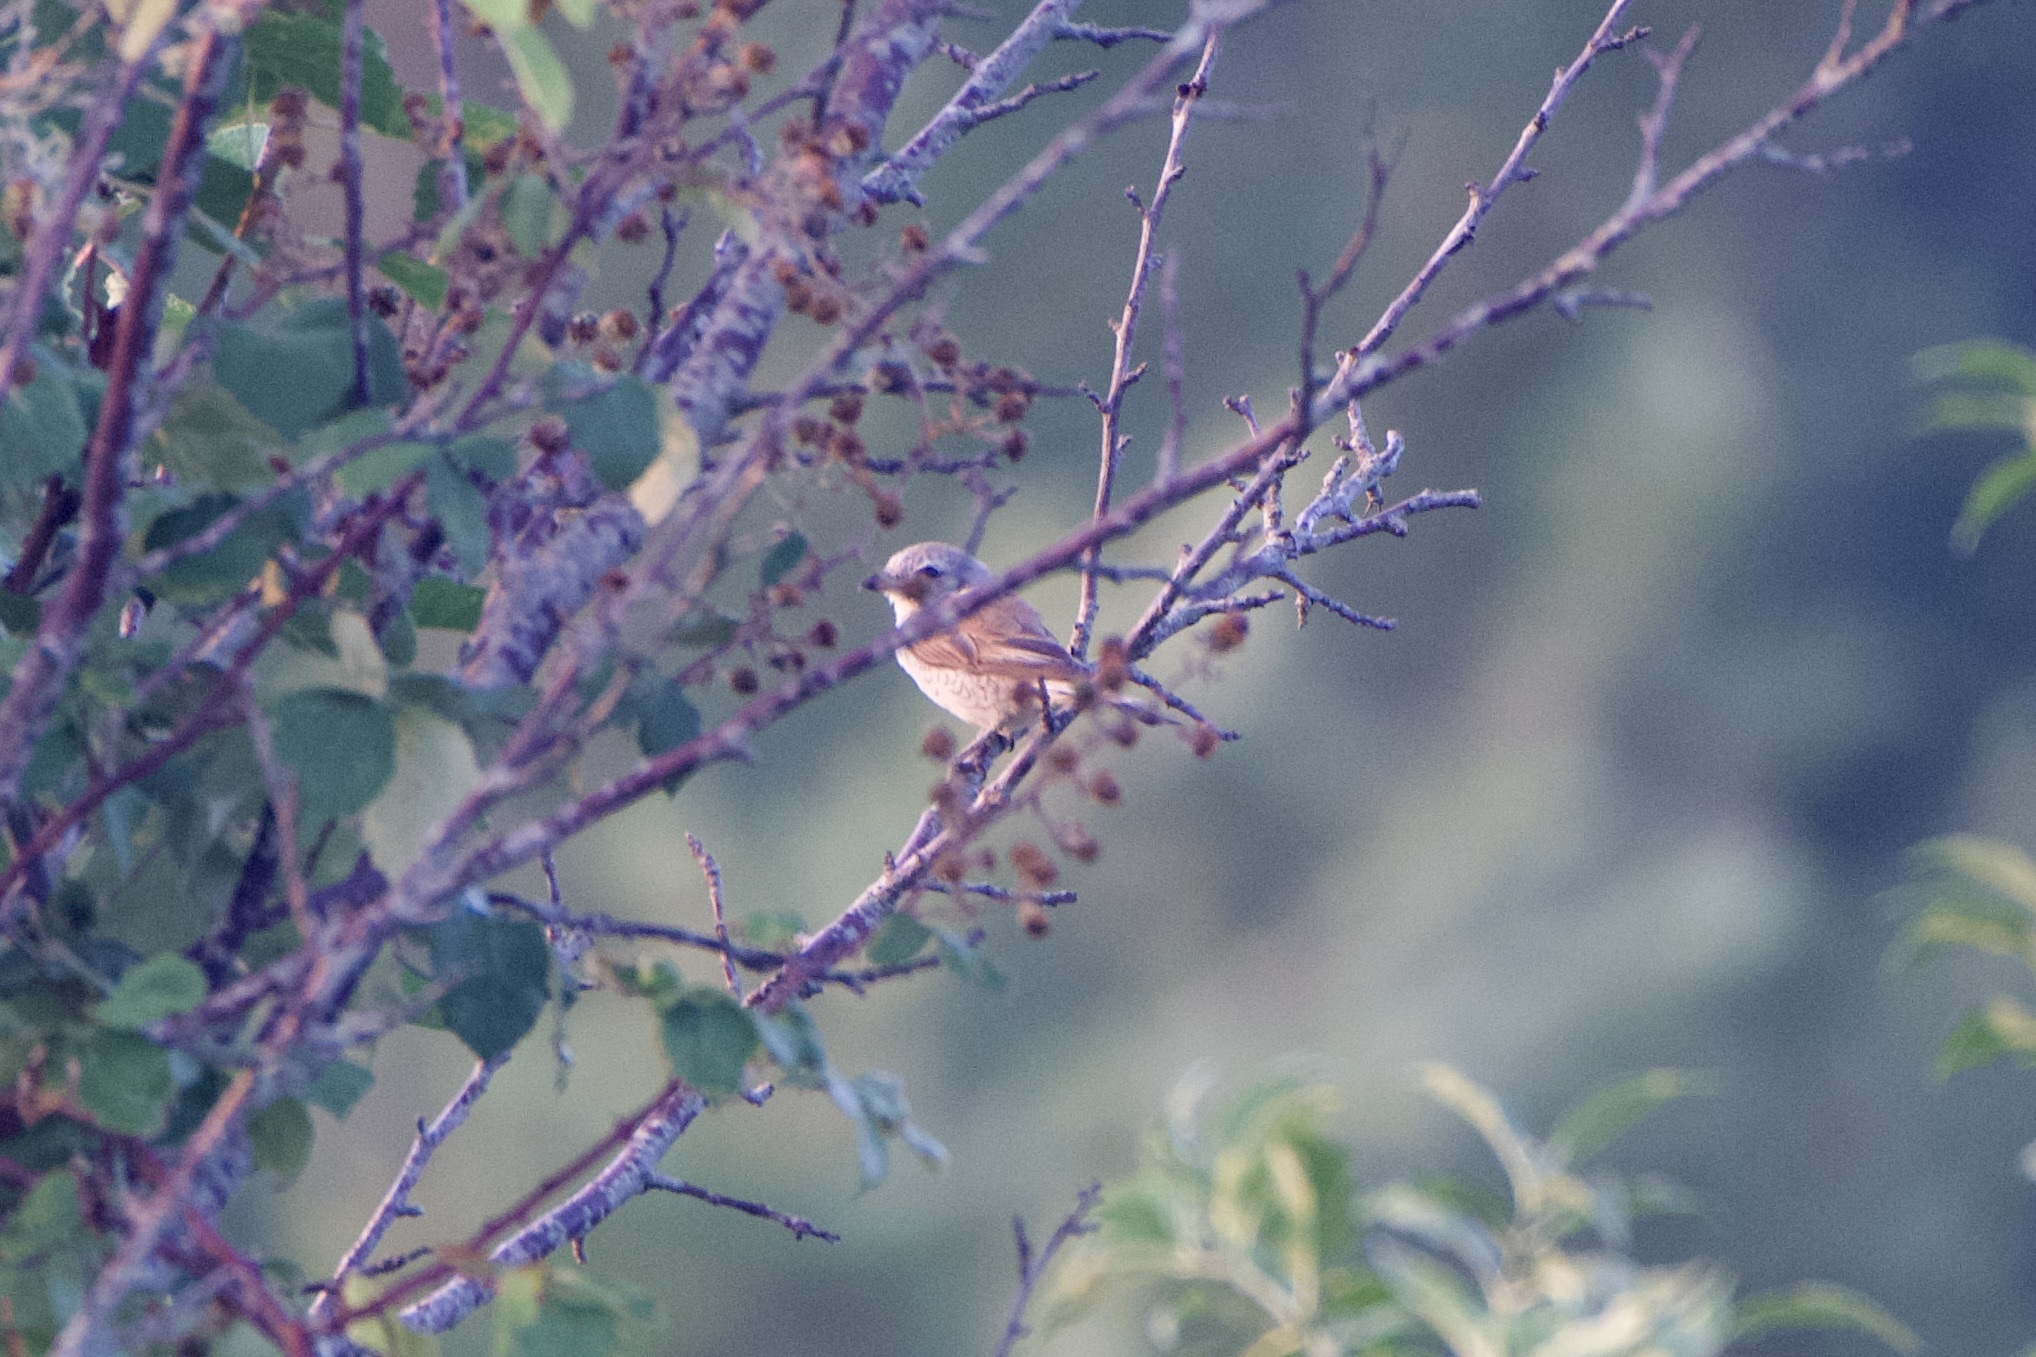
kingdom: Animalia
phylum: Chordata
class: Aves
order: Passeriformes
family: Laniidae
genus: Lanius
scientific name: Lanius collurio
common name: Red-backed shrike
